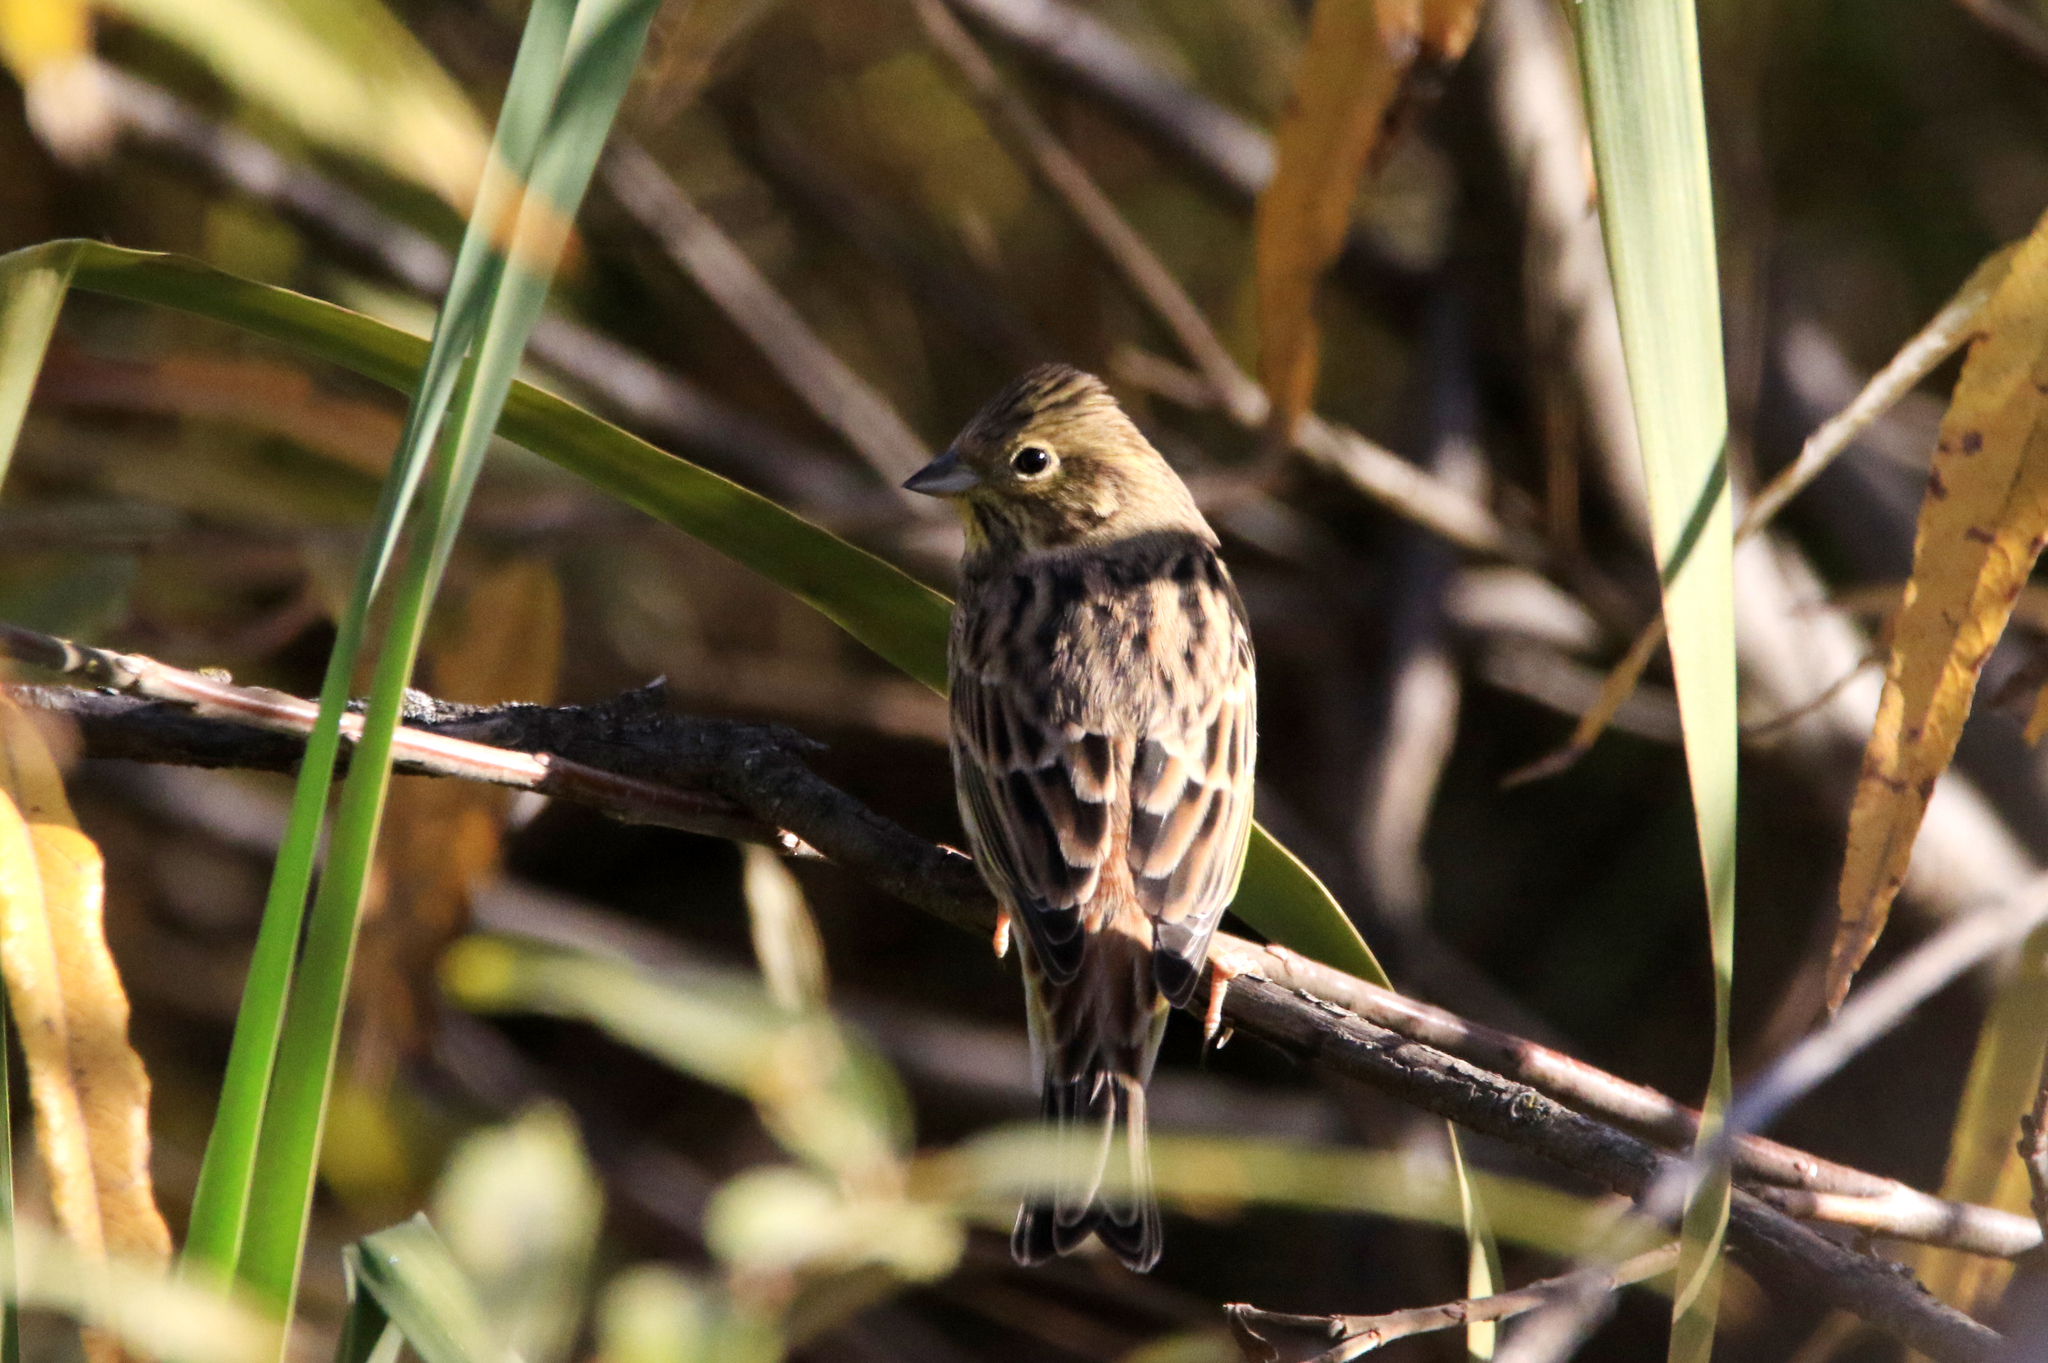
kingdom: Animalia
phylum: Chordata
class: Aves
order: Passeriformes
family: Emberizidae
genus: Emberiza
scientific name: Emberiza citrinella
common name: Yellowhammer
